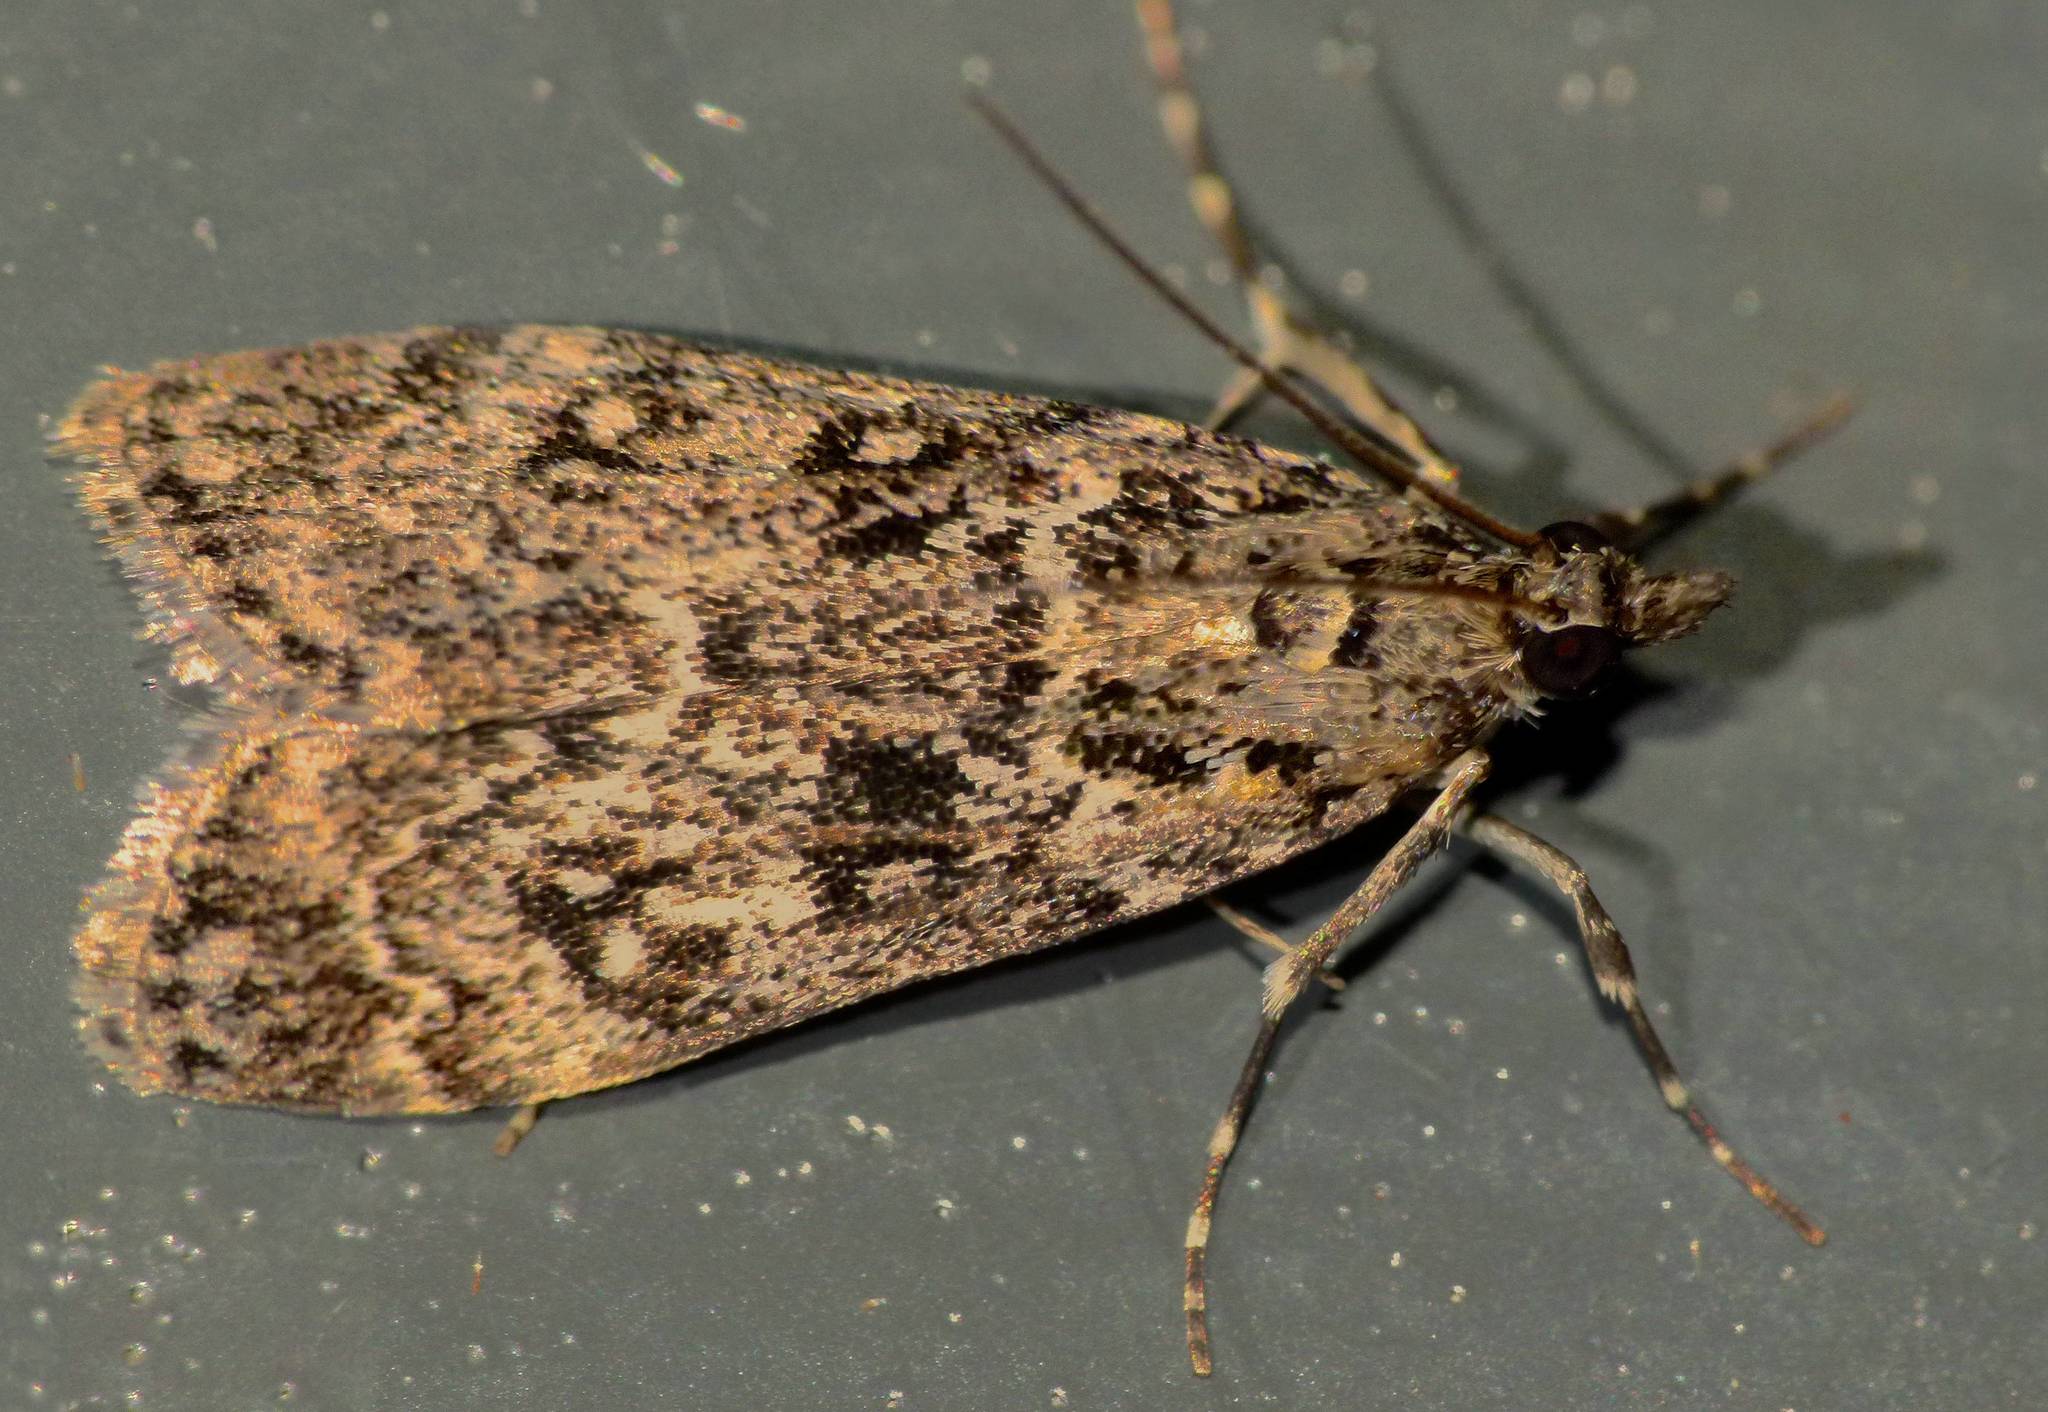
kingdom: Animalia
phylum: Arthropoda
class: Insecta
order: Lepidoptera
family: Crambidae
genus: Eudonia
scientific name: Eudonia philerga
